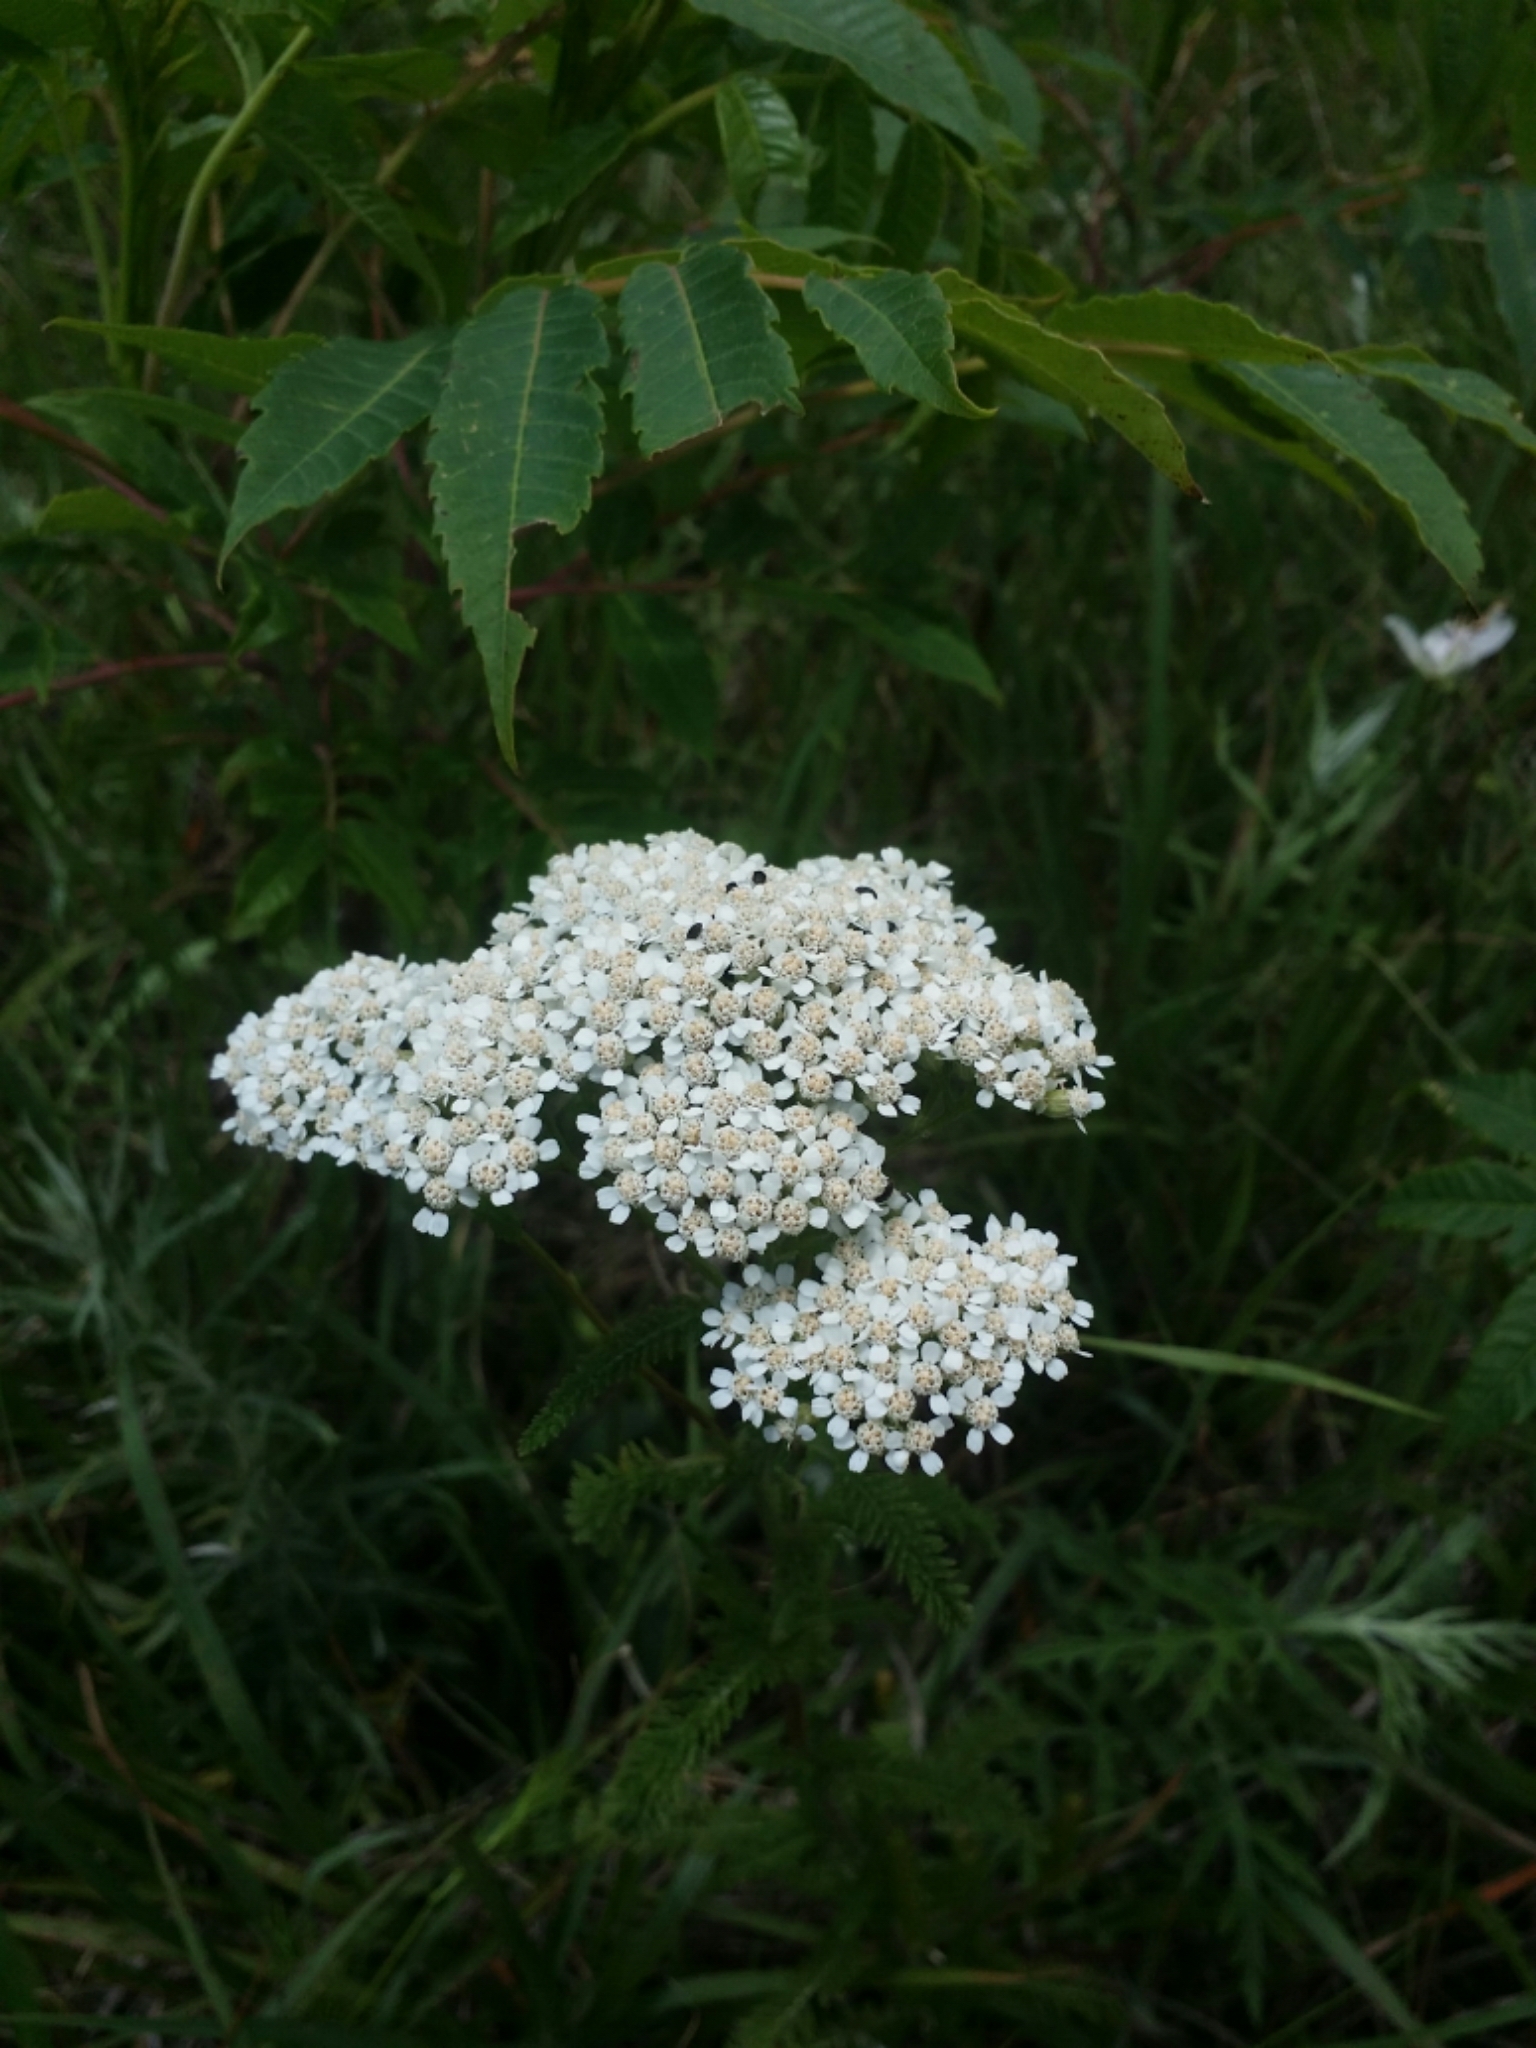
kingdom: Plantae
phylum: Tracheophyta
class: Magnoliopsida
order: Asterales
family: Asteraceae
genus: Achillea
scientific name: Achillea millefolium
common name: Yarrow
